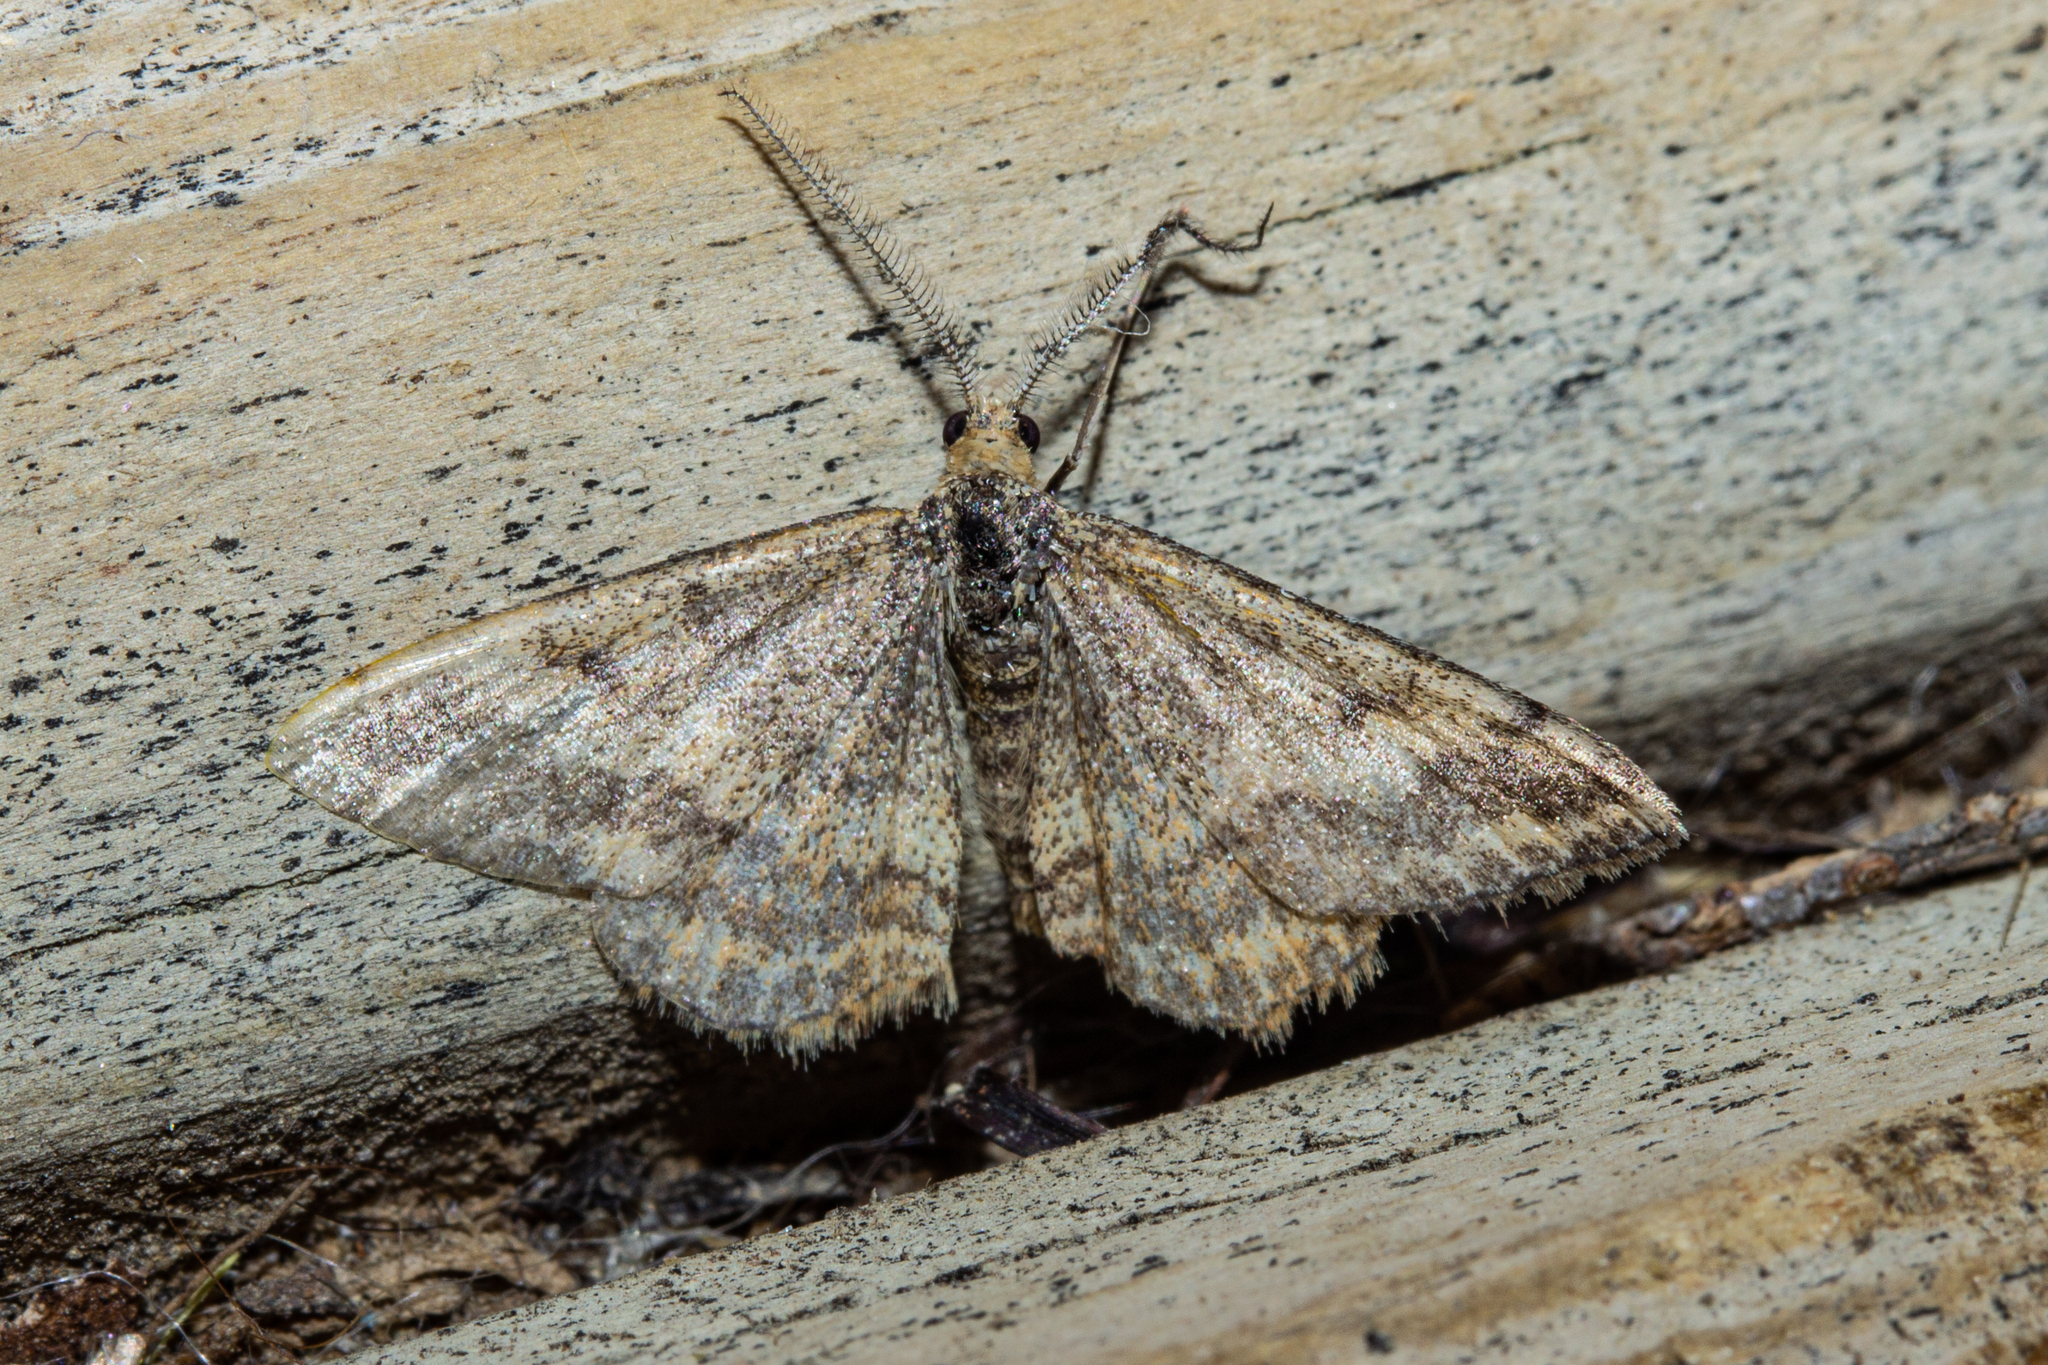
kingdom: Animalia
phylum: Arthropoda
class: Insecta
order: Lepidoptera
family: Geometridae
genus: Scopula
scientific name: Scopula rubraria
